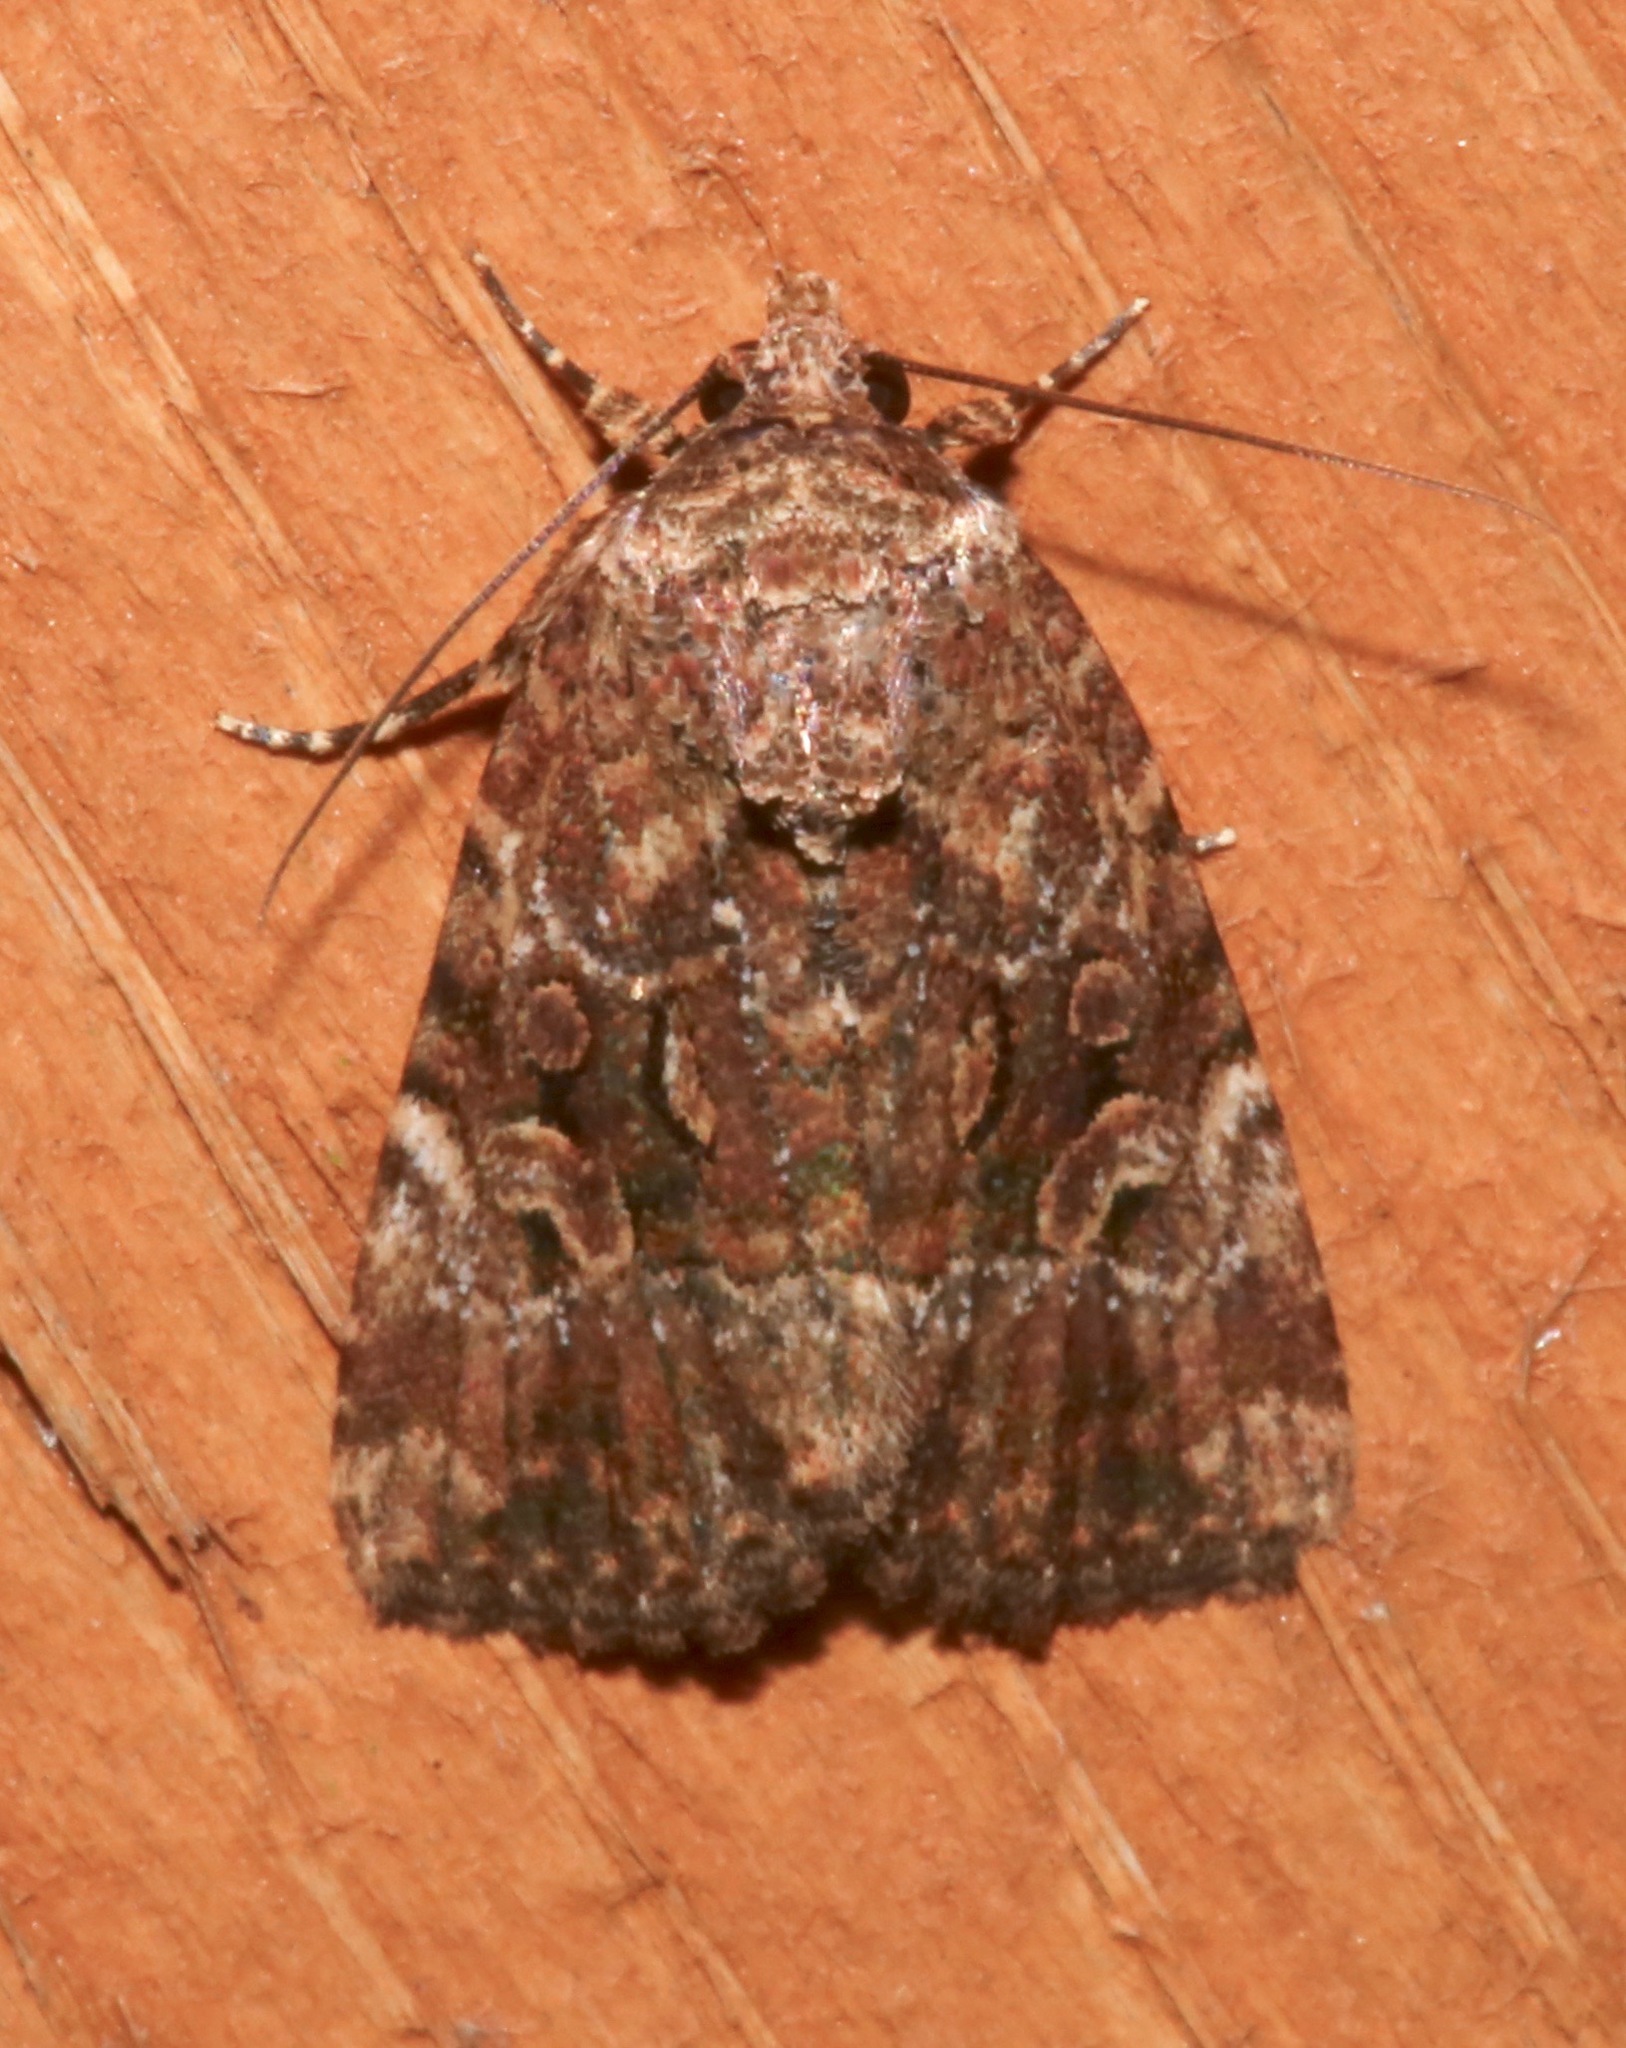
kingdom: Animalia
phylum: Arthropoda
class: Insecta
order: Lepidoptera
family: Noctuidae
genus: Elaphria
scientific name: Elaphria exesa
